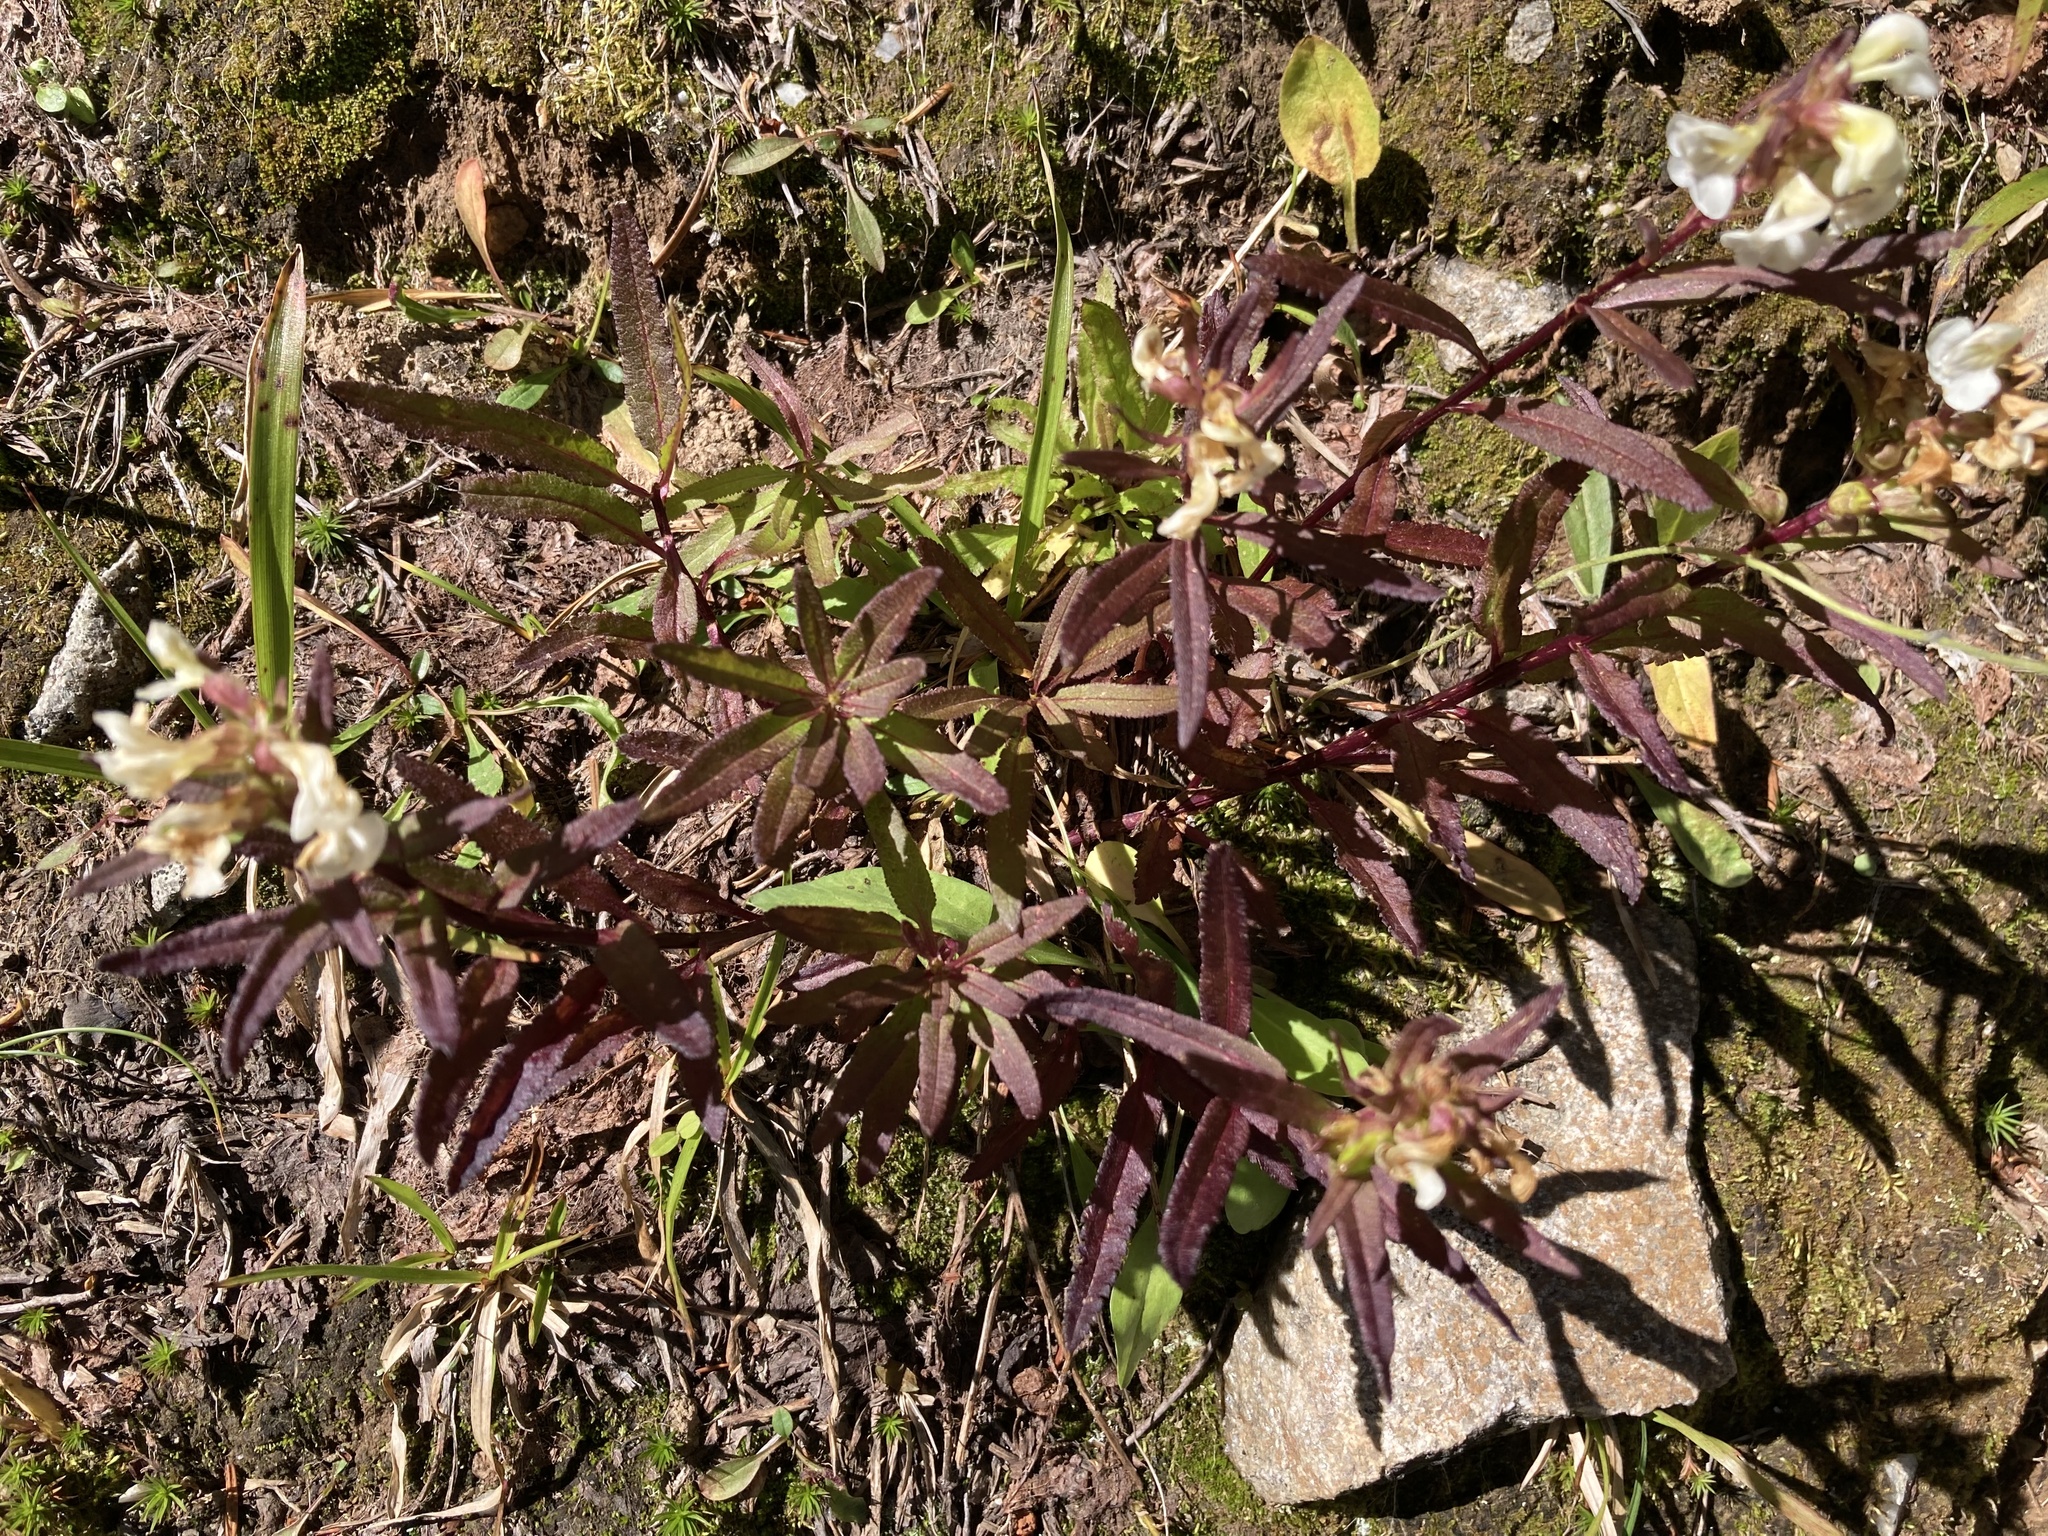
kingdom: Plantae
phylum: Tracheophyta
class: Magnoliopsida
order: Lamiales
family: Orobanchaceae
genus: Pedicularis
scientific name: Pedicularis racemosa
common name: Leafy lousewort
